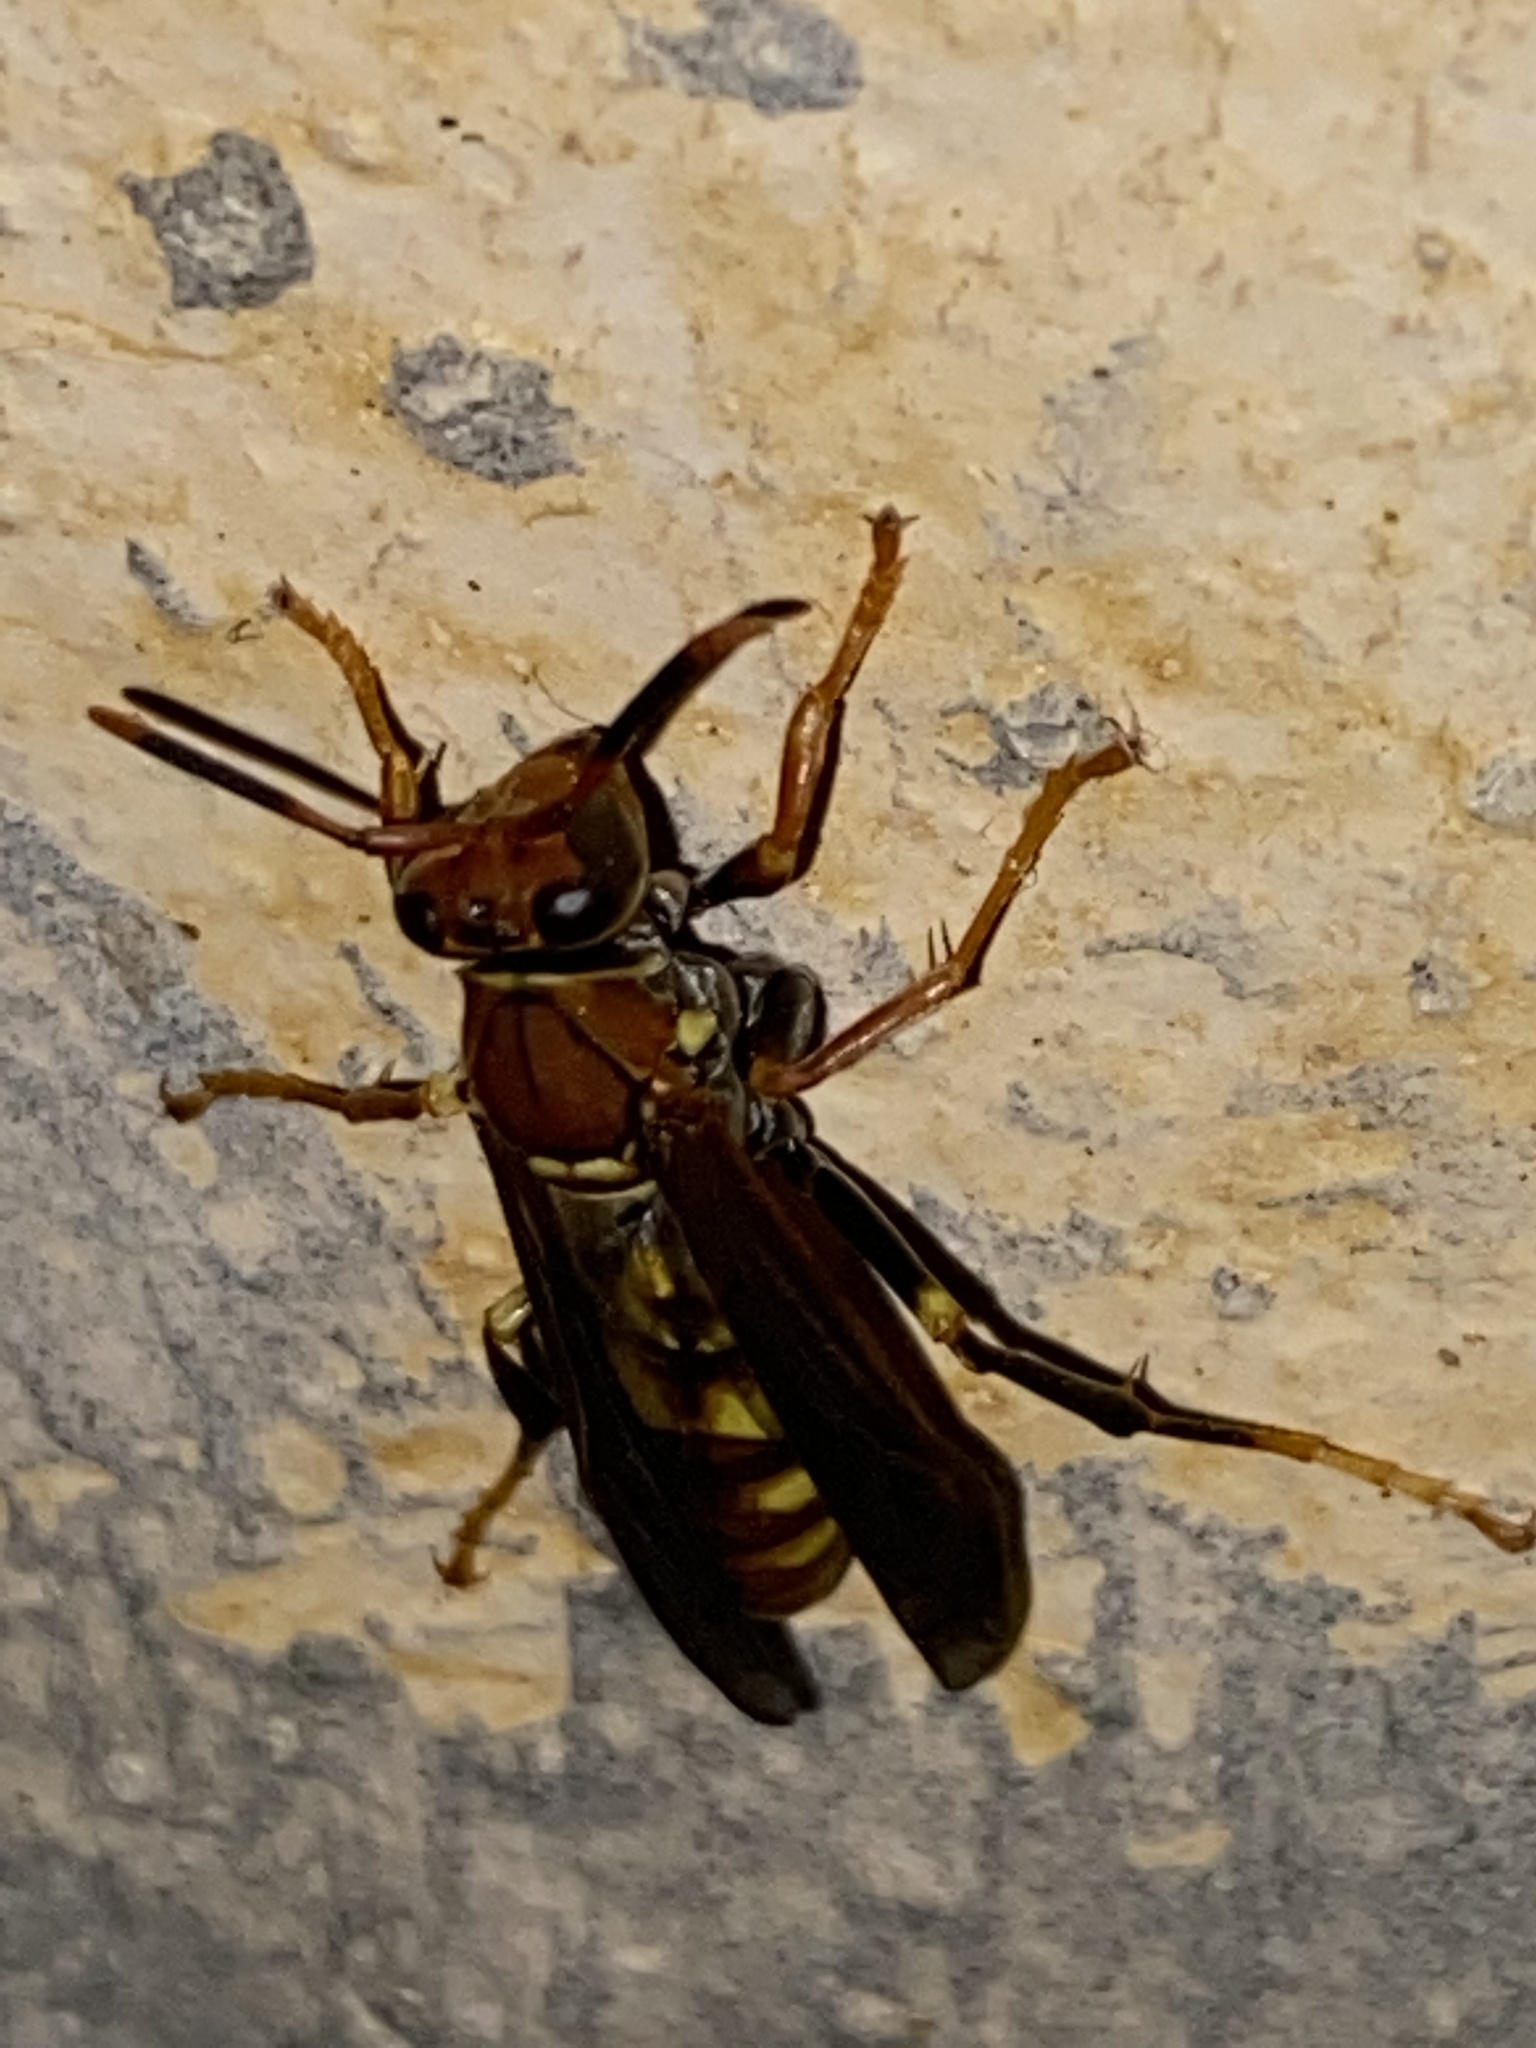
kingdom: Animalia
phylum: Arthropoda
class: Insecta
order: Hymenoptera
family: Eumenidae
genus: Polistes
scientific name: Polistes versicolor
